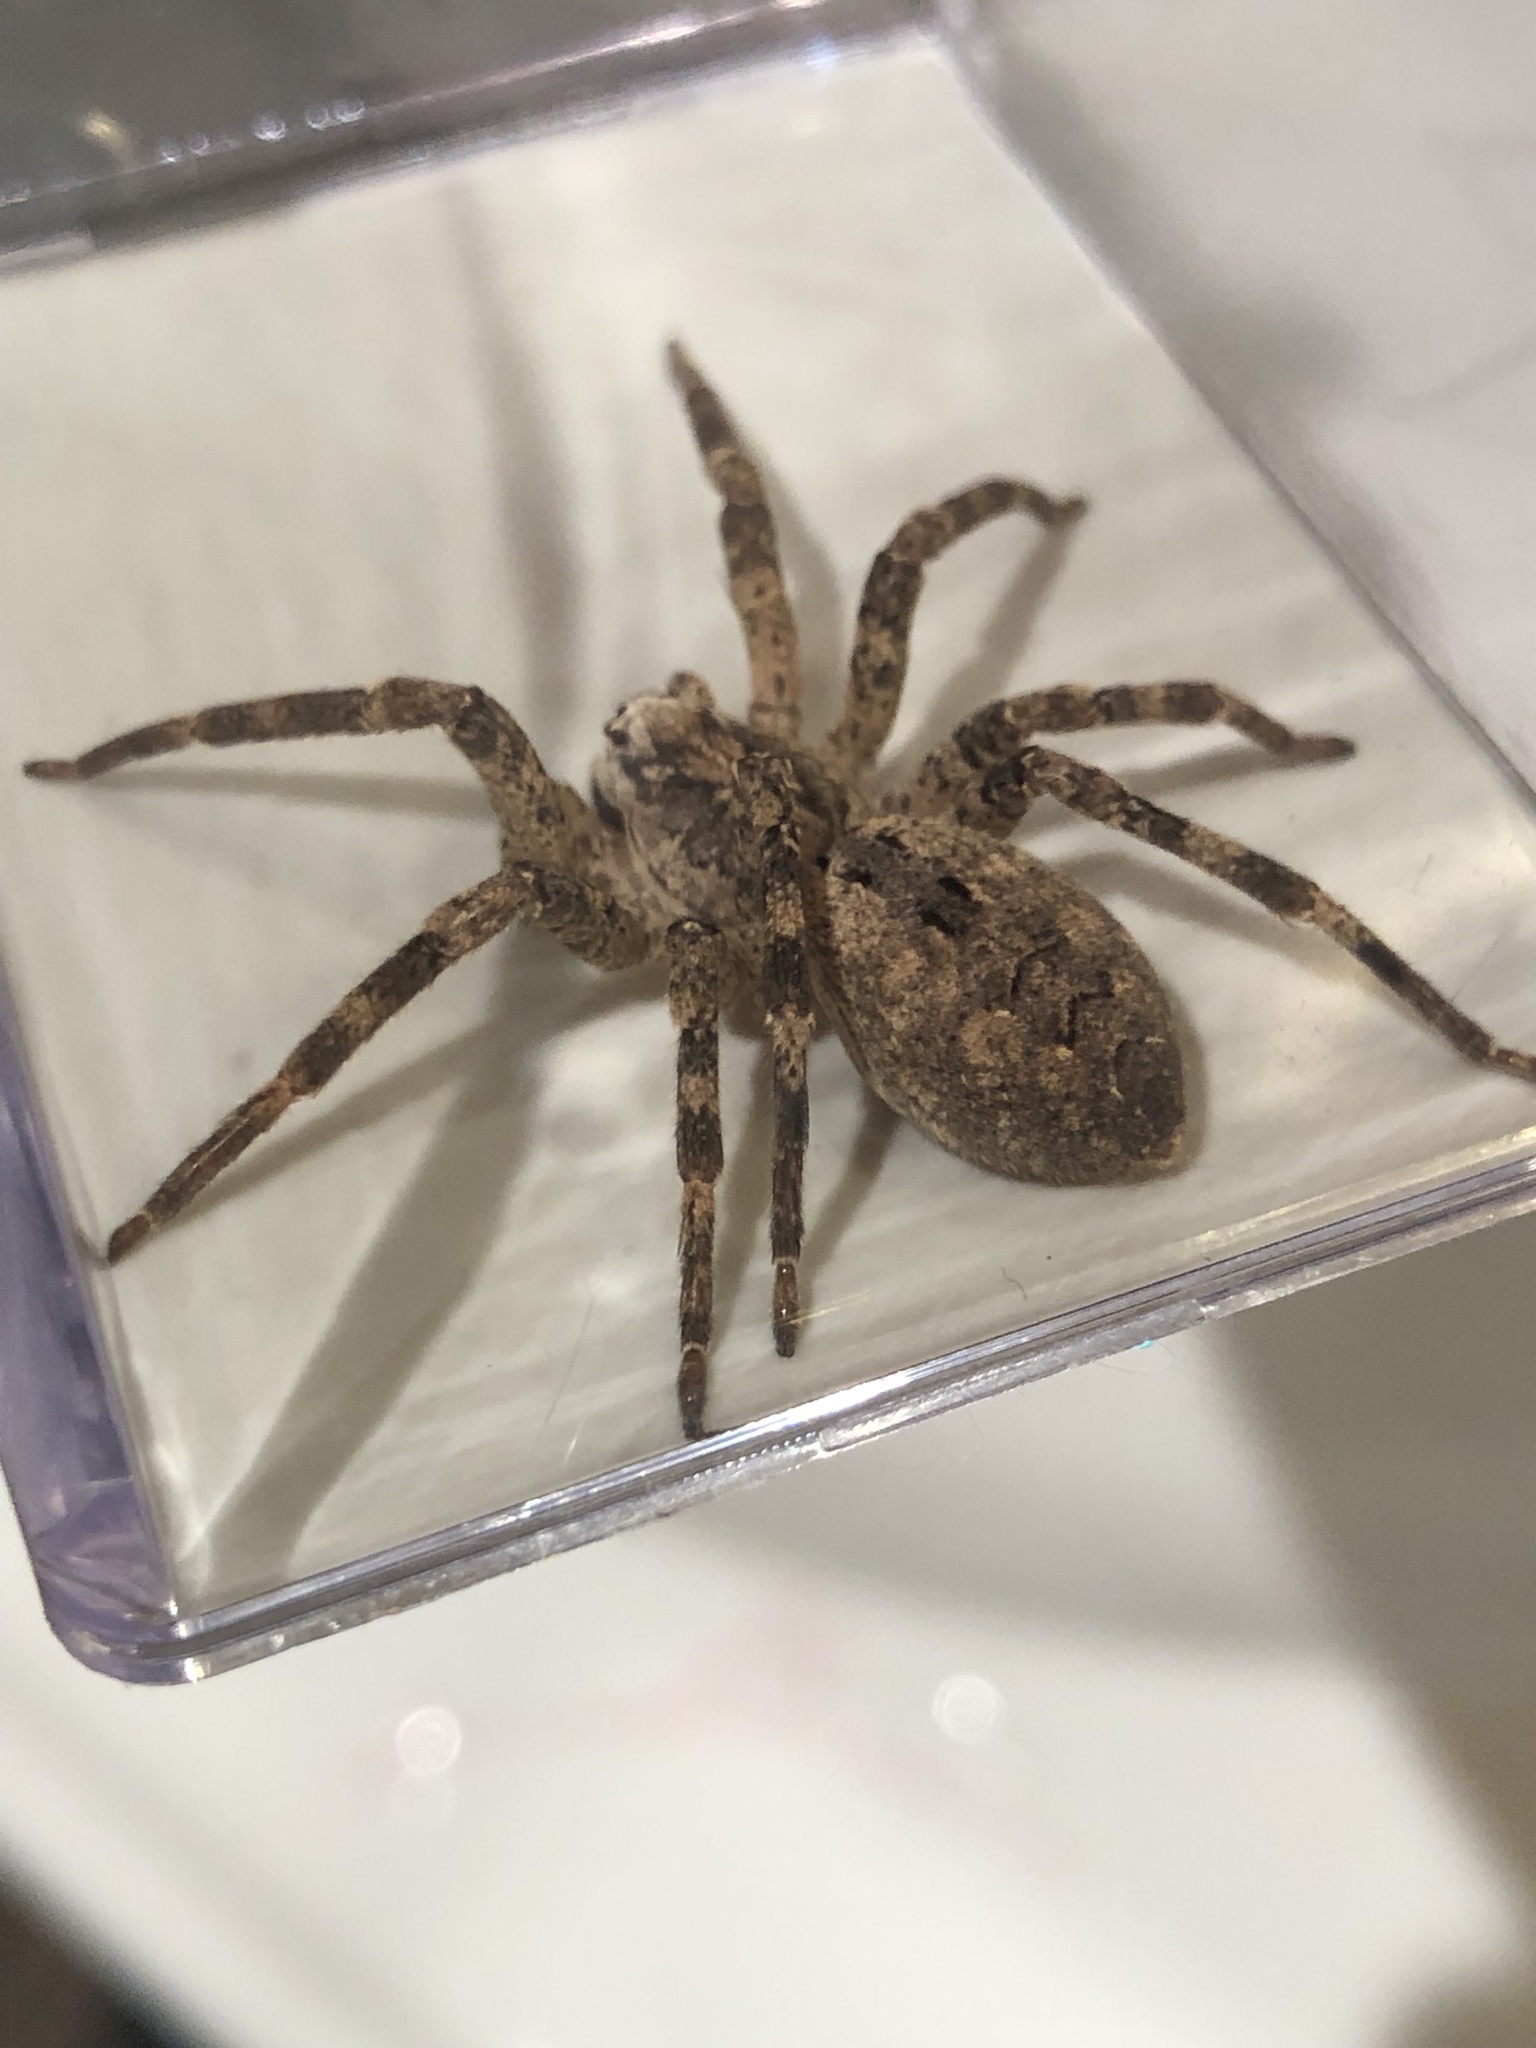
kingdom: Animalia
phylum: Arthropoda
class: Arachnida
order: Araneae
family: Zoropsidae
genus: Zoropsis
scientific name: Zoropsis spinimana
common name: Zoropsid spider
